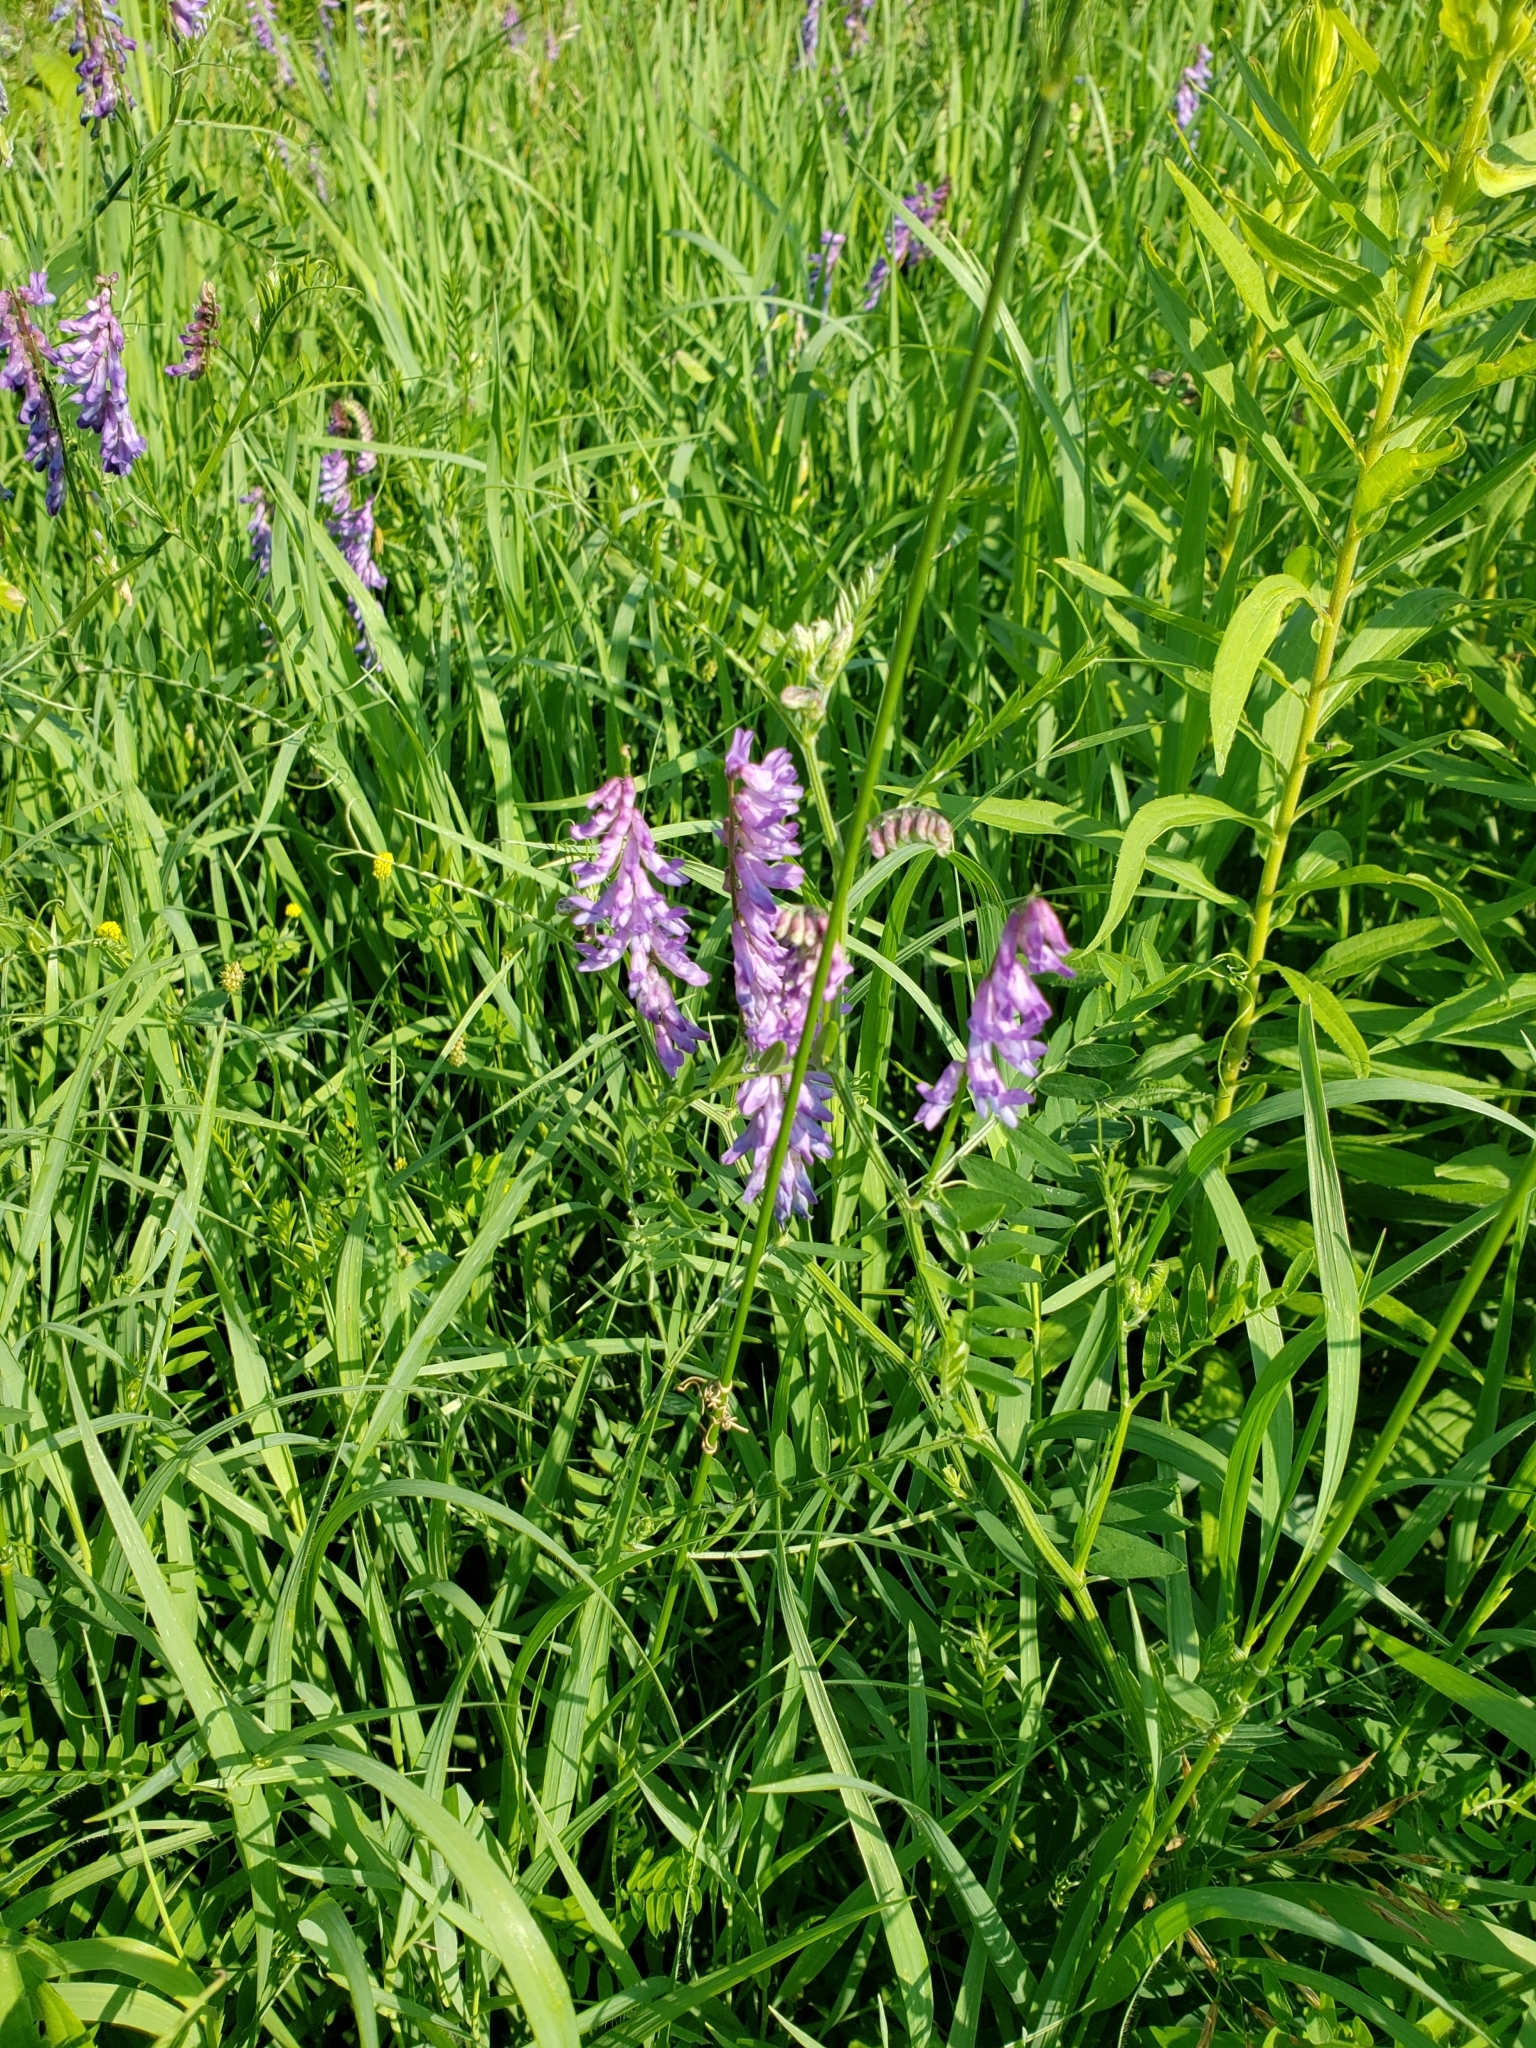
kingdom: Plantae
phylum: Tracheophyta
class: Magnoliopsida
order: Fabales
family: Fabaceae
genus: Vicia
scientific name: Vicia cracca
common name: Bird vetch
